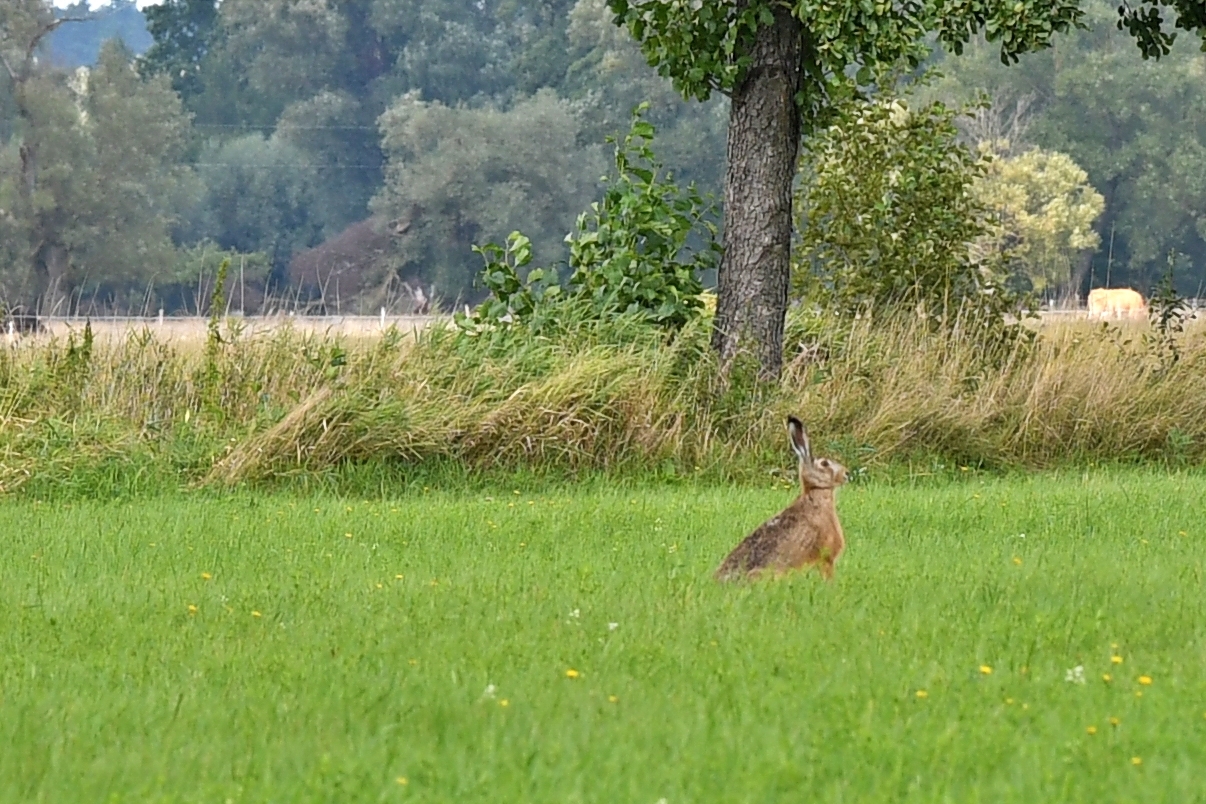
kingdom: Animalia
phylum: Chordata
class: Mammalia
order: Lagomorpha
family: Leporidae
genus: Lepus
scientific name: Lepus europaeus
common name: European hare
